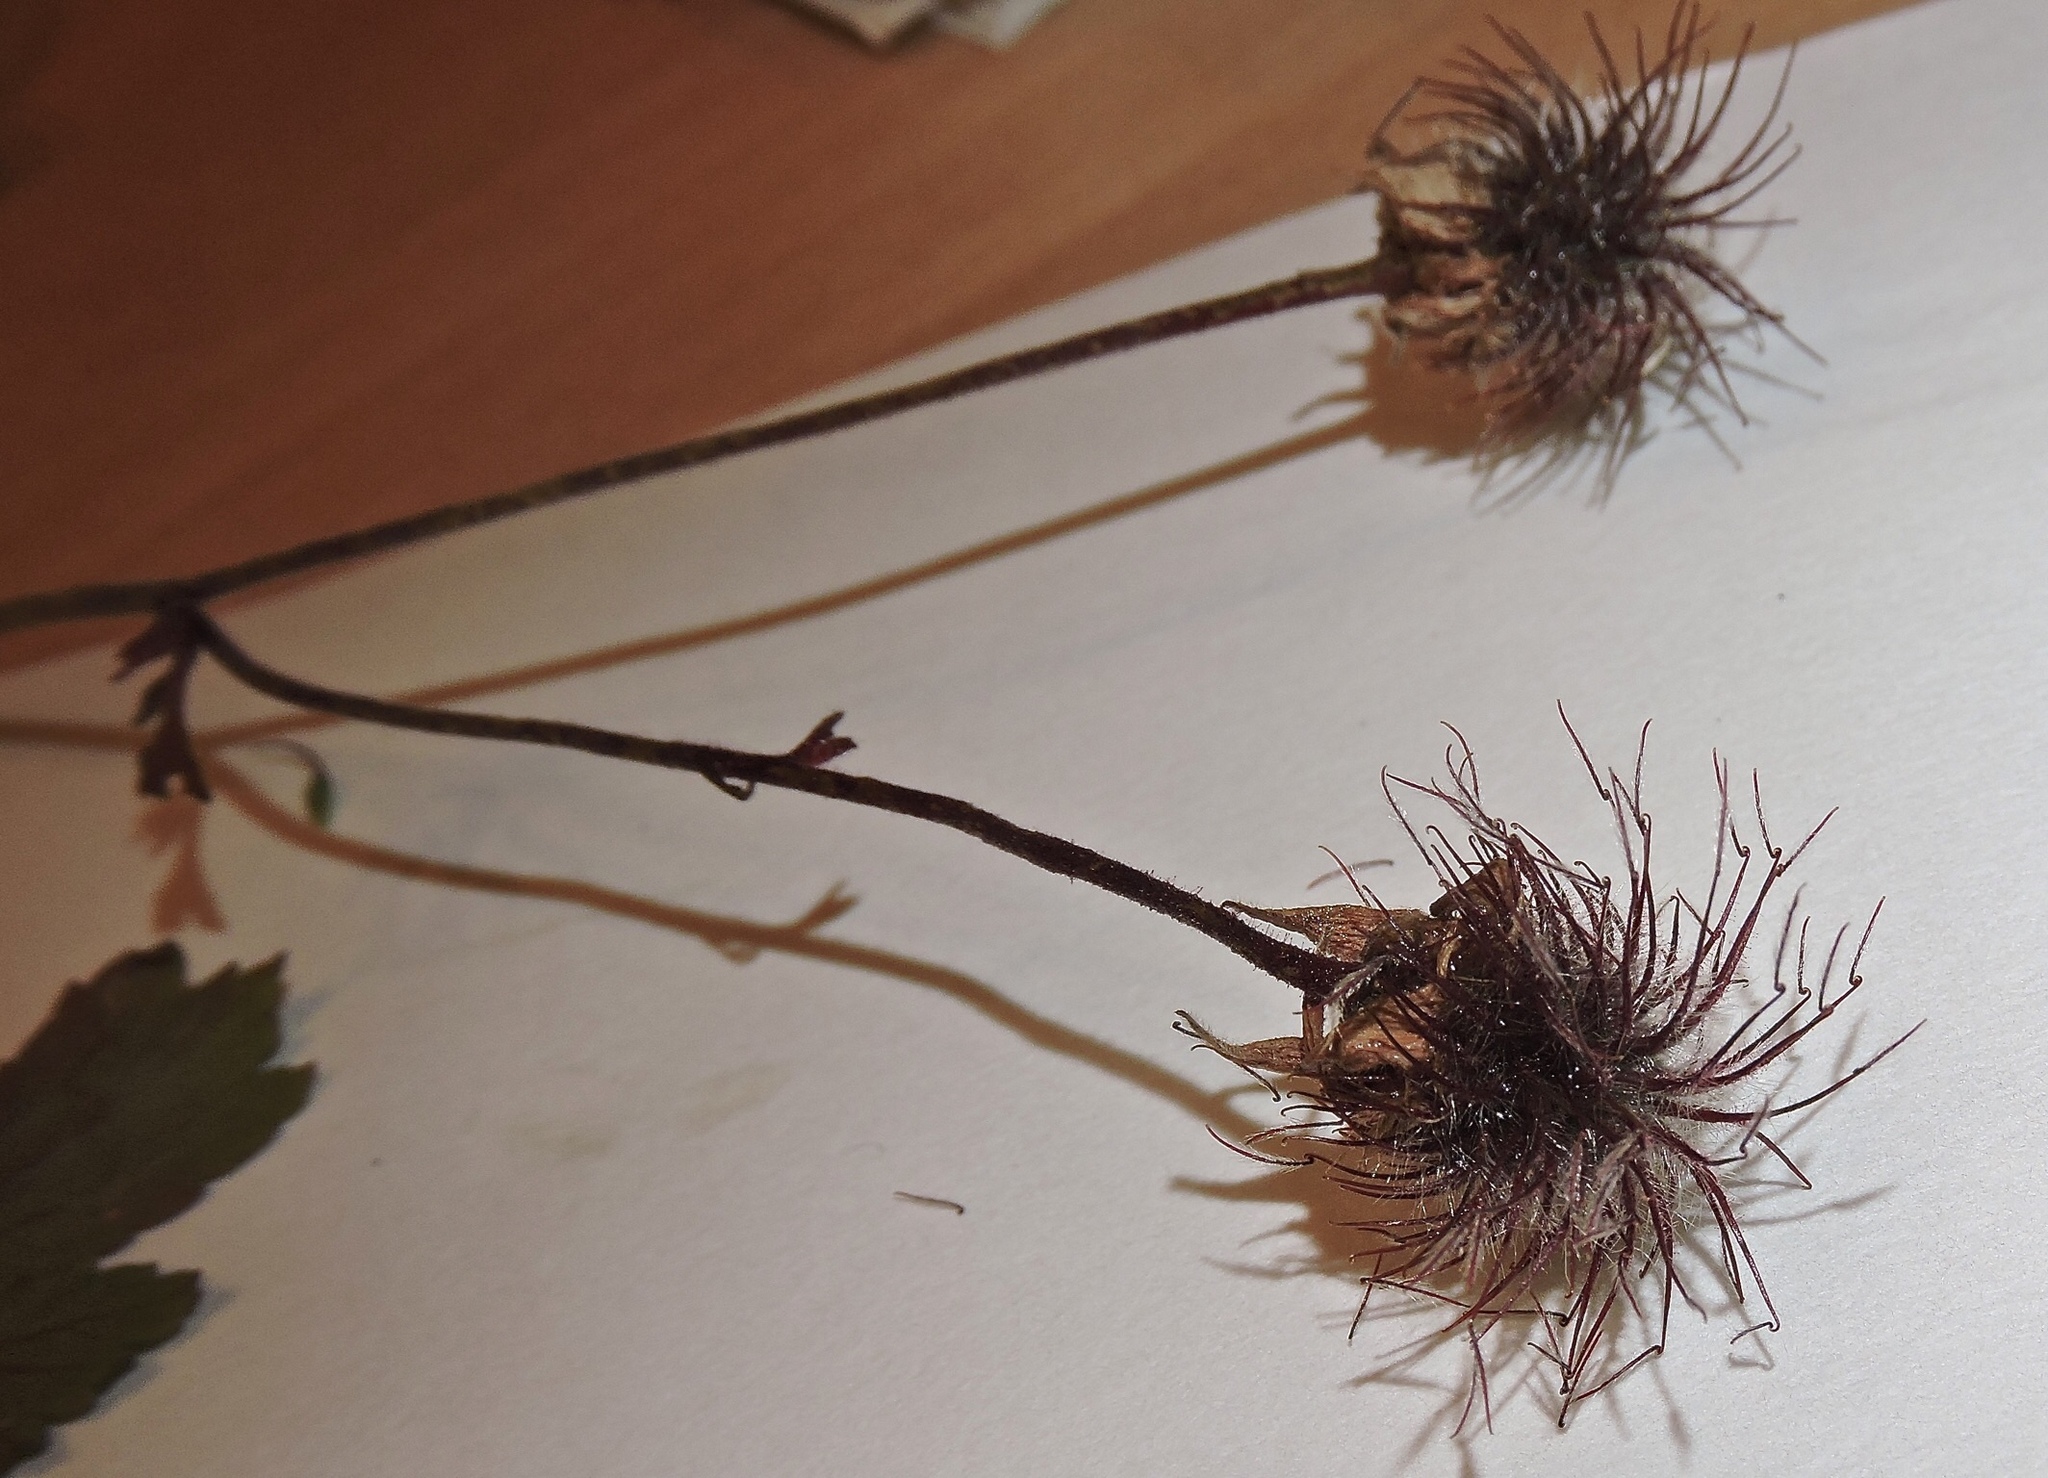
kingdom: Plantae
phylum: Tracheophyta
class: Magnoliopsida
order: Rosales
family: Rosaceae
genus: Geum
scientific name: Geum urbanum
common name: Wood avens
